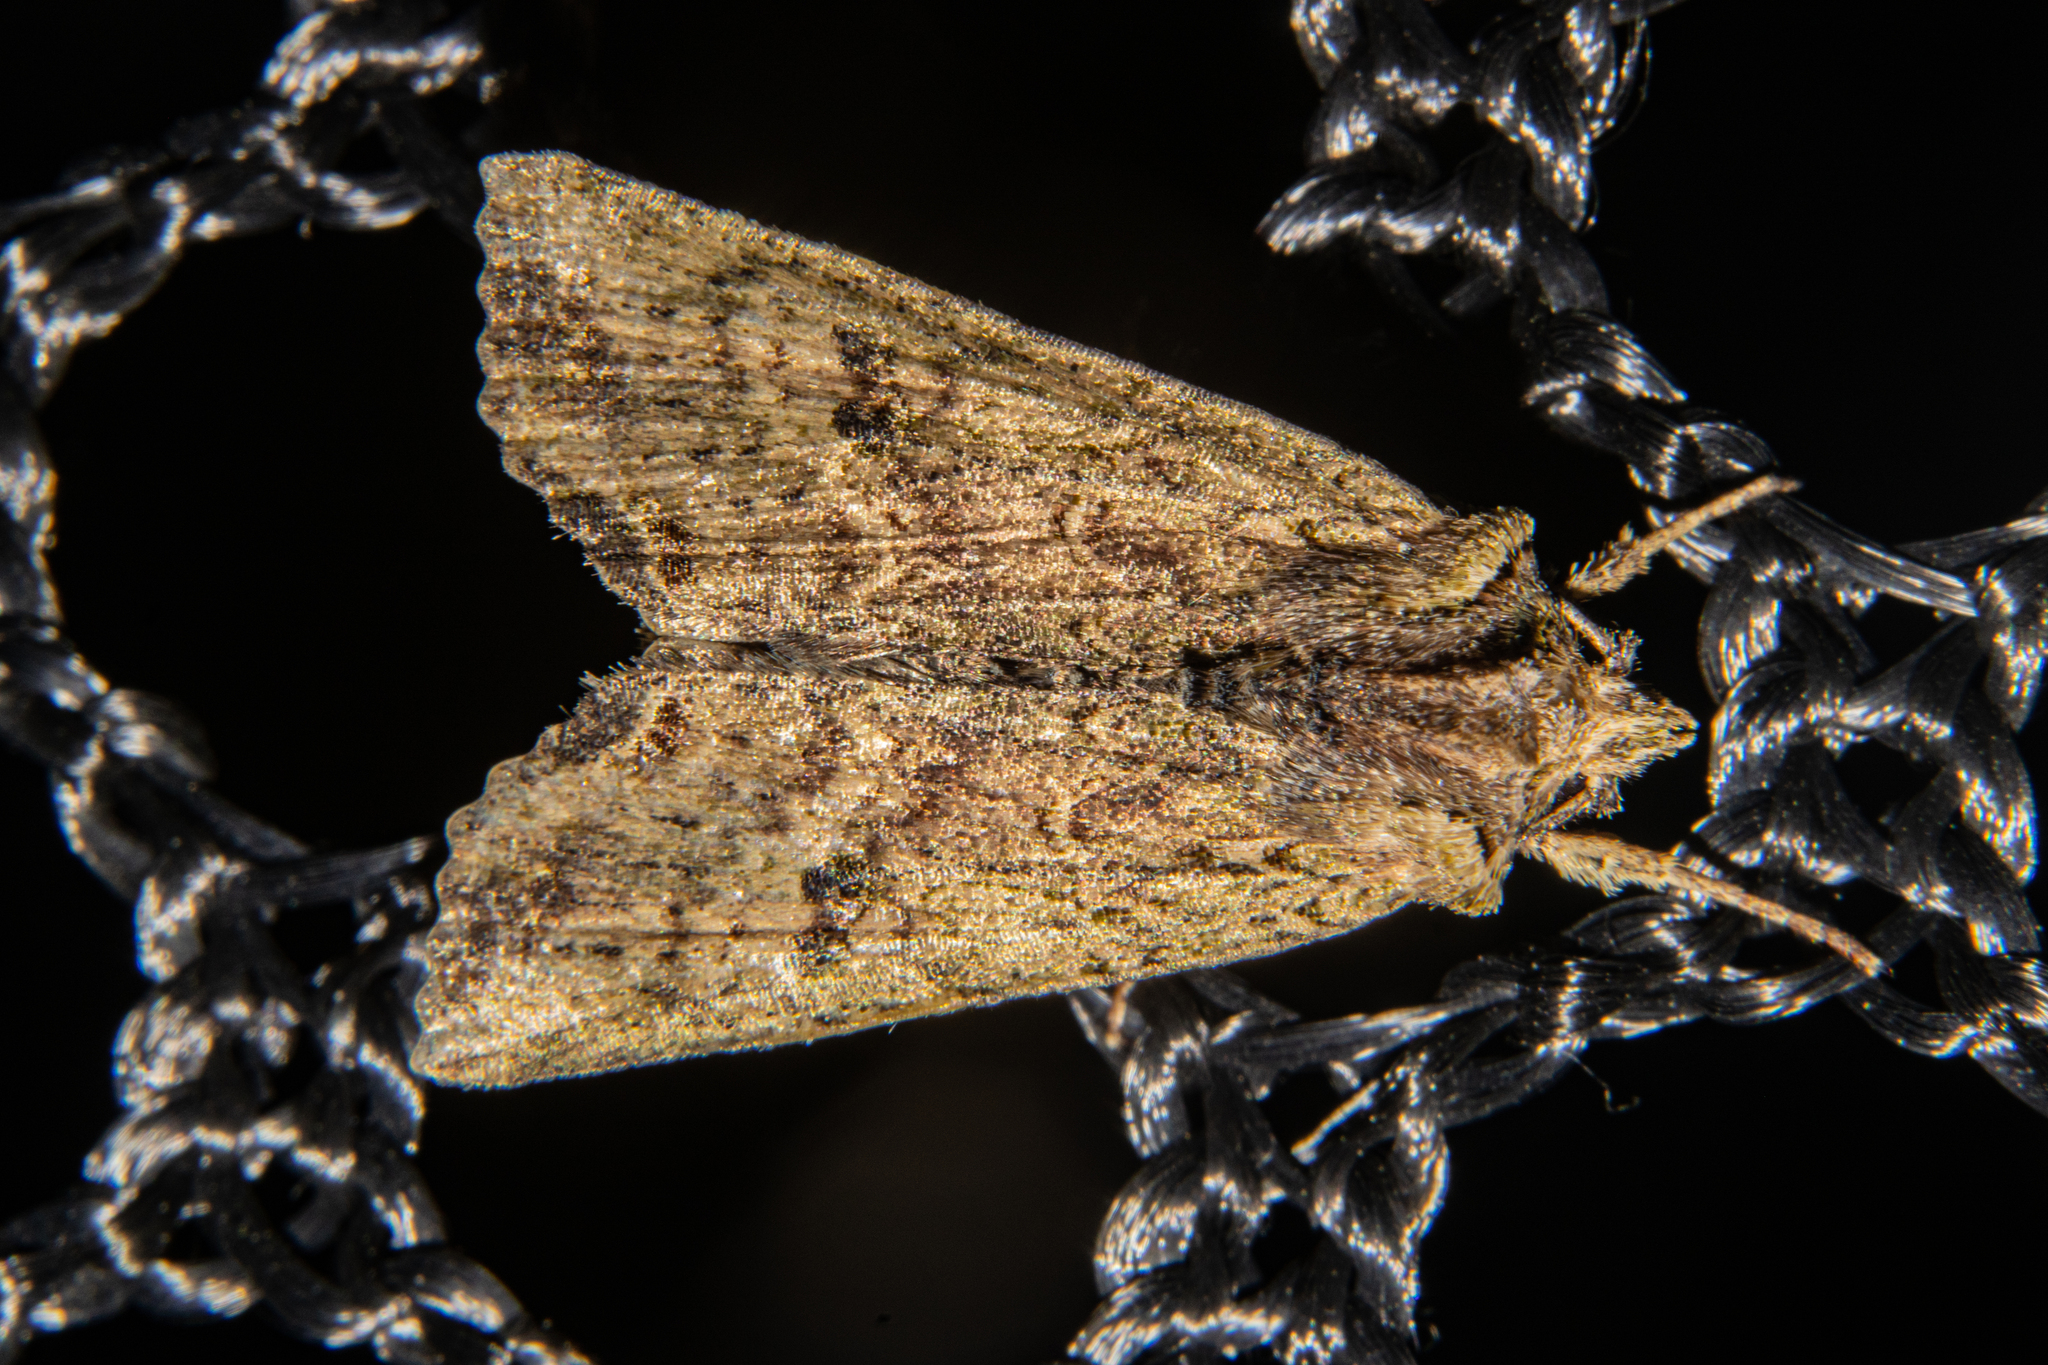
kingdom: Animalia
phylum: Arthropoda
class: Insecta
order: Lepidoptera
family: Noctuidae
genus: Meterana
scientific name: Meterana coeleno
